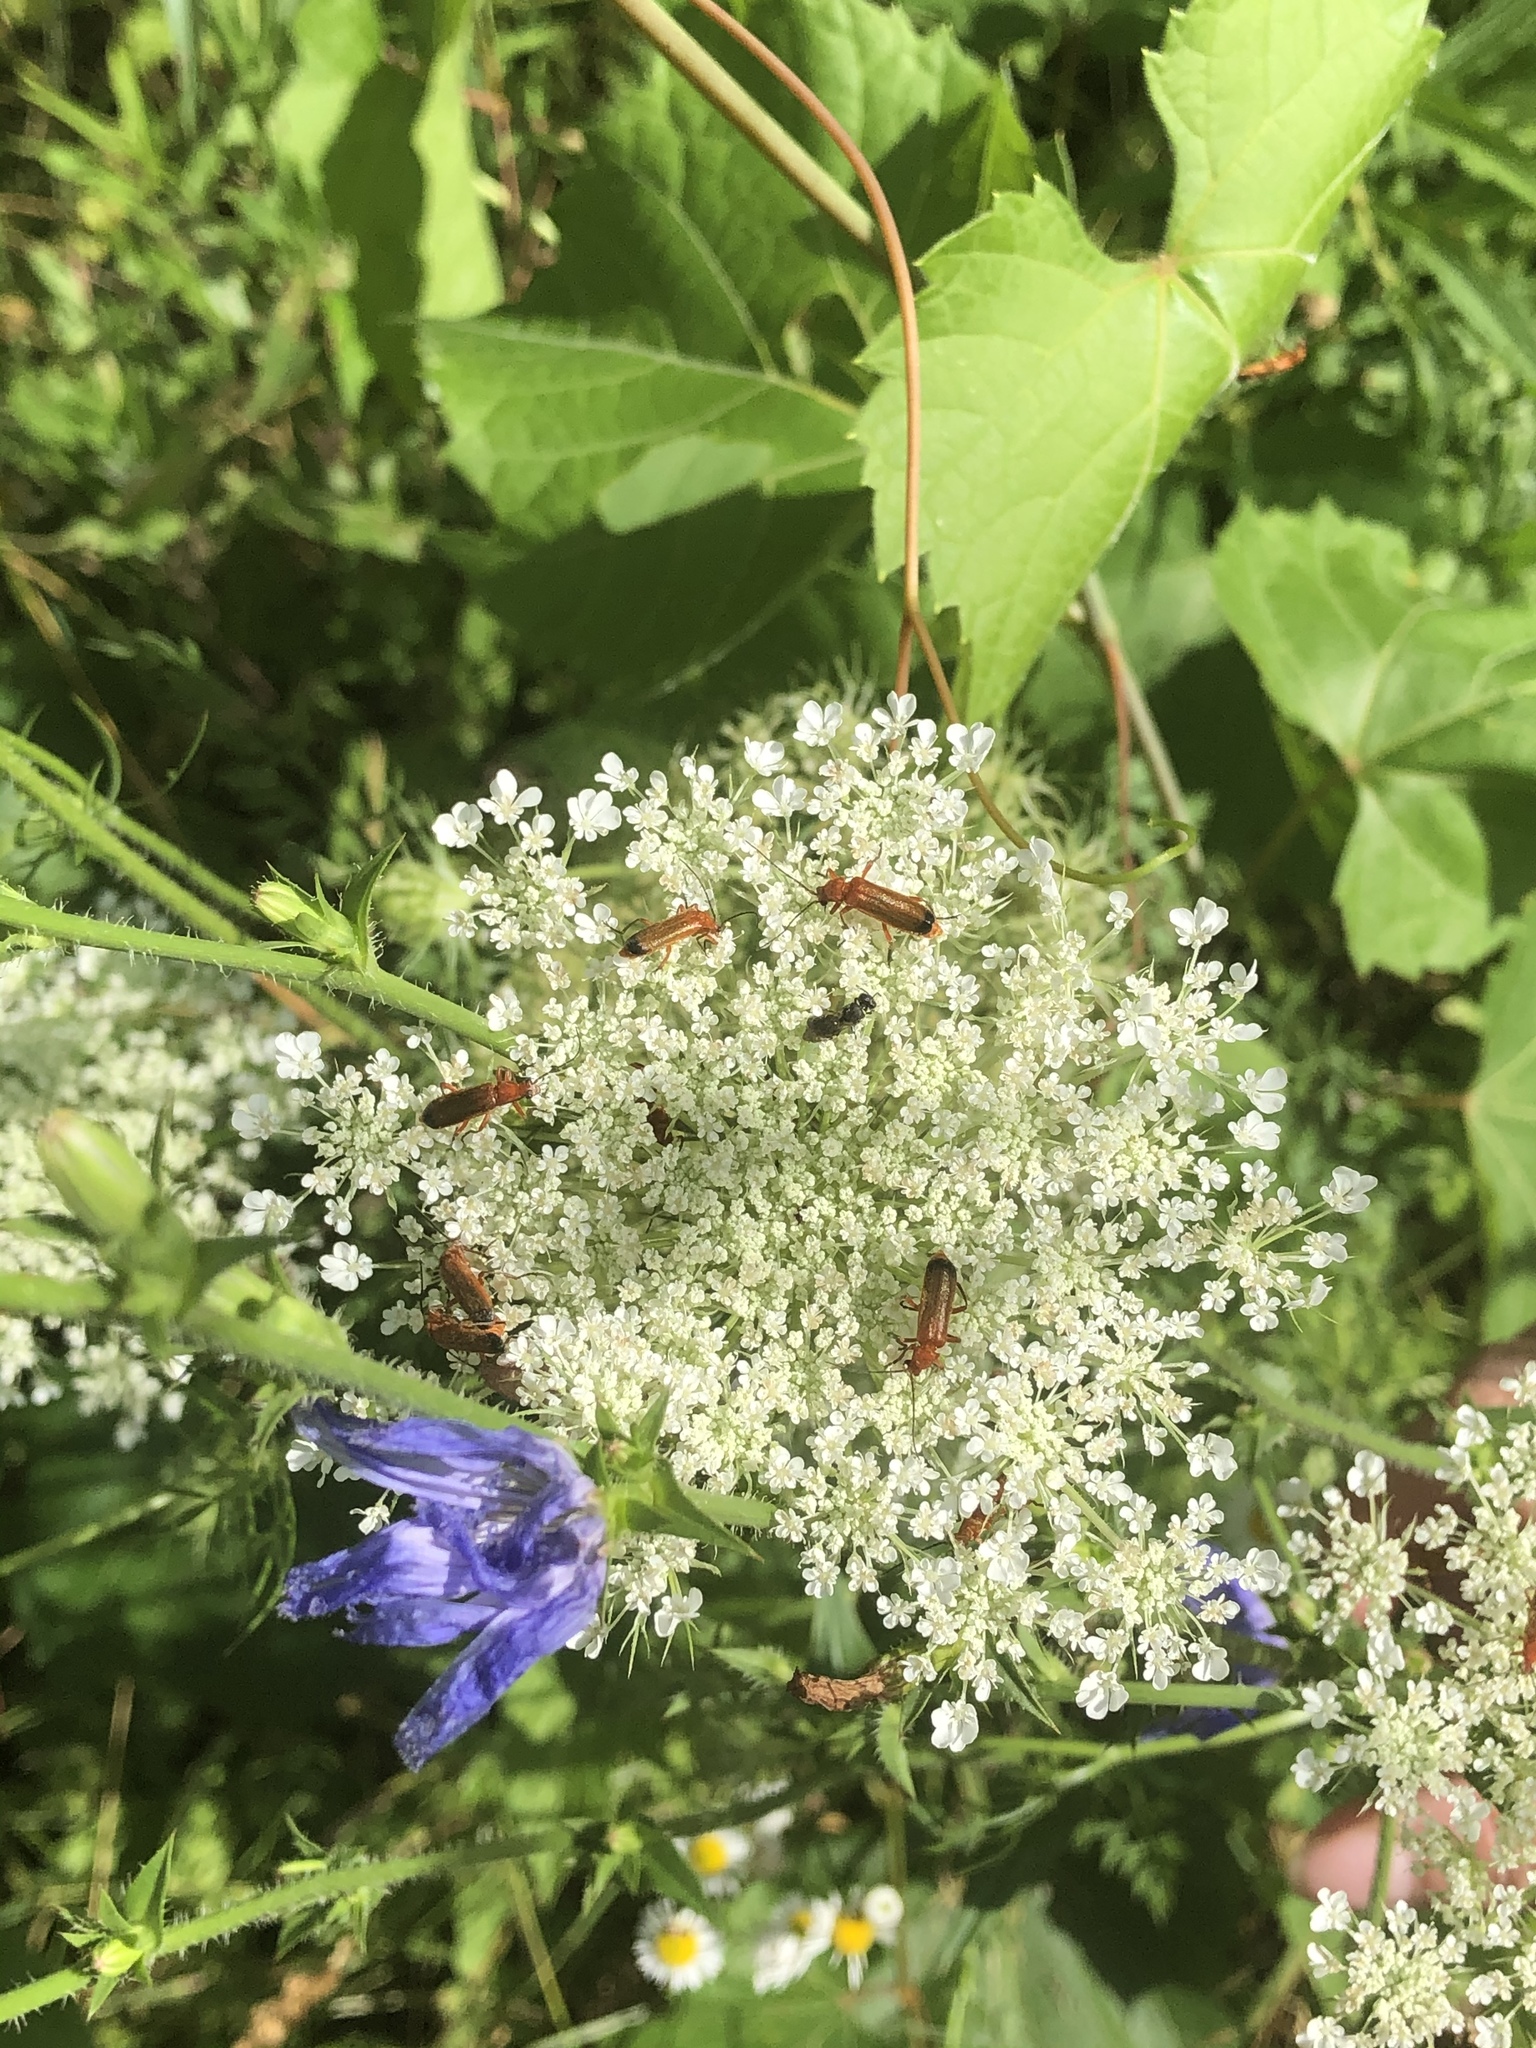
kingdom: Animalia
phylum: Arthropoda
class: Insecta
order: Coleoptera
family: Cantharidae
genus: Rhagonycha
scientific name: Rhagonycha fulva
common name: Common red soldier beetle
